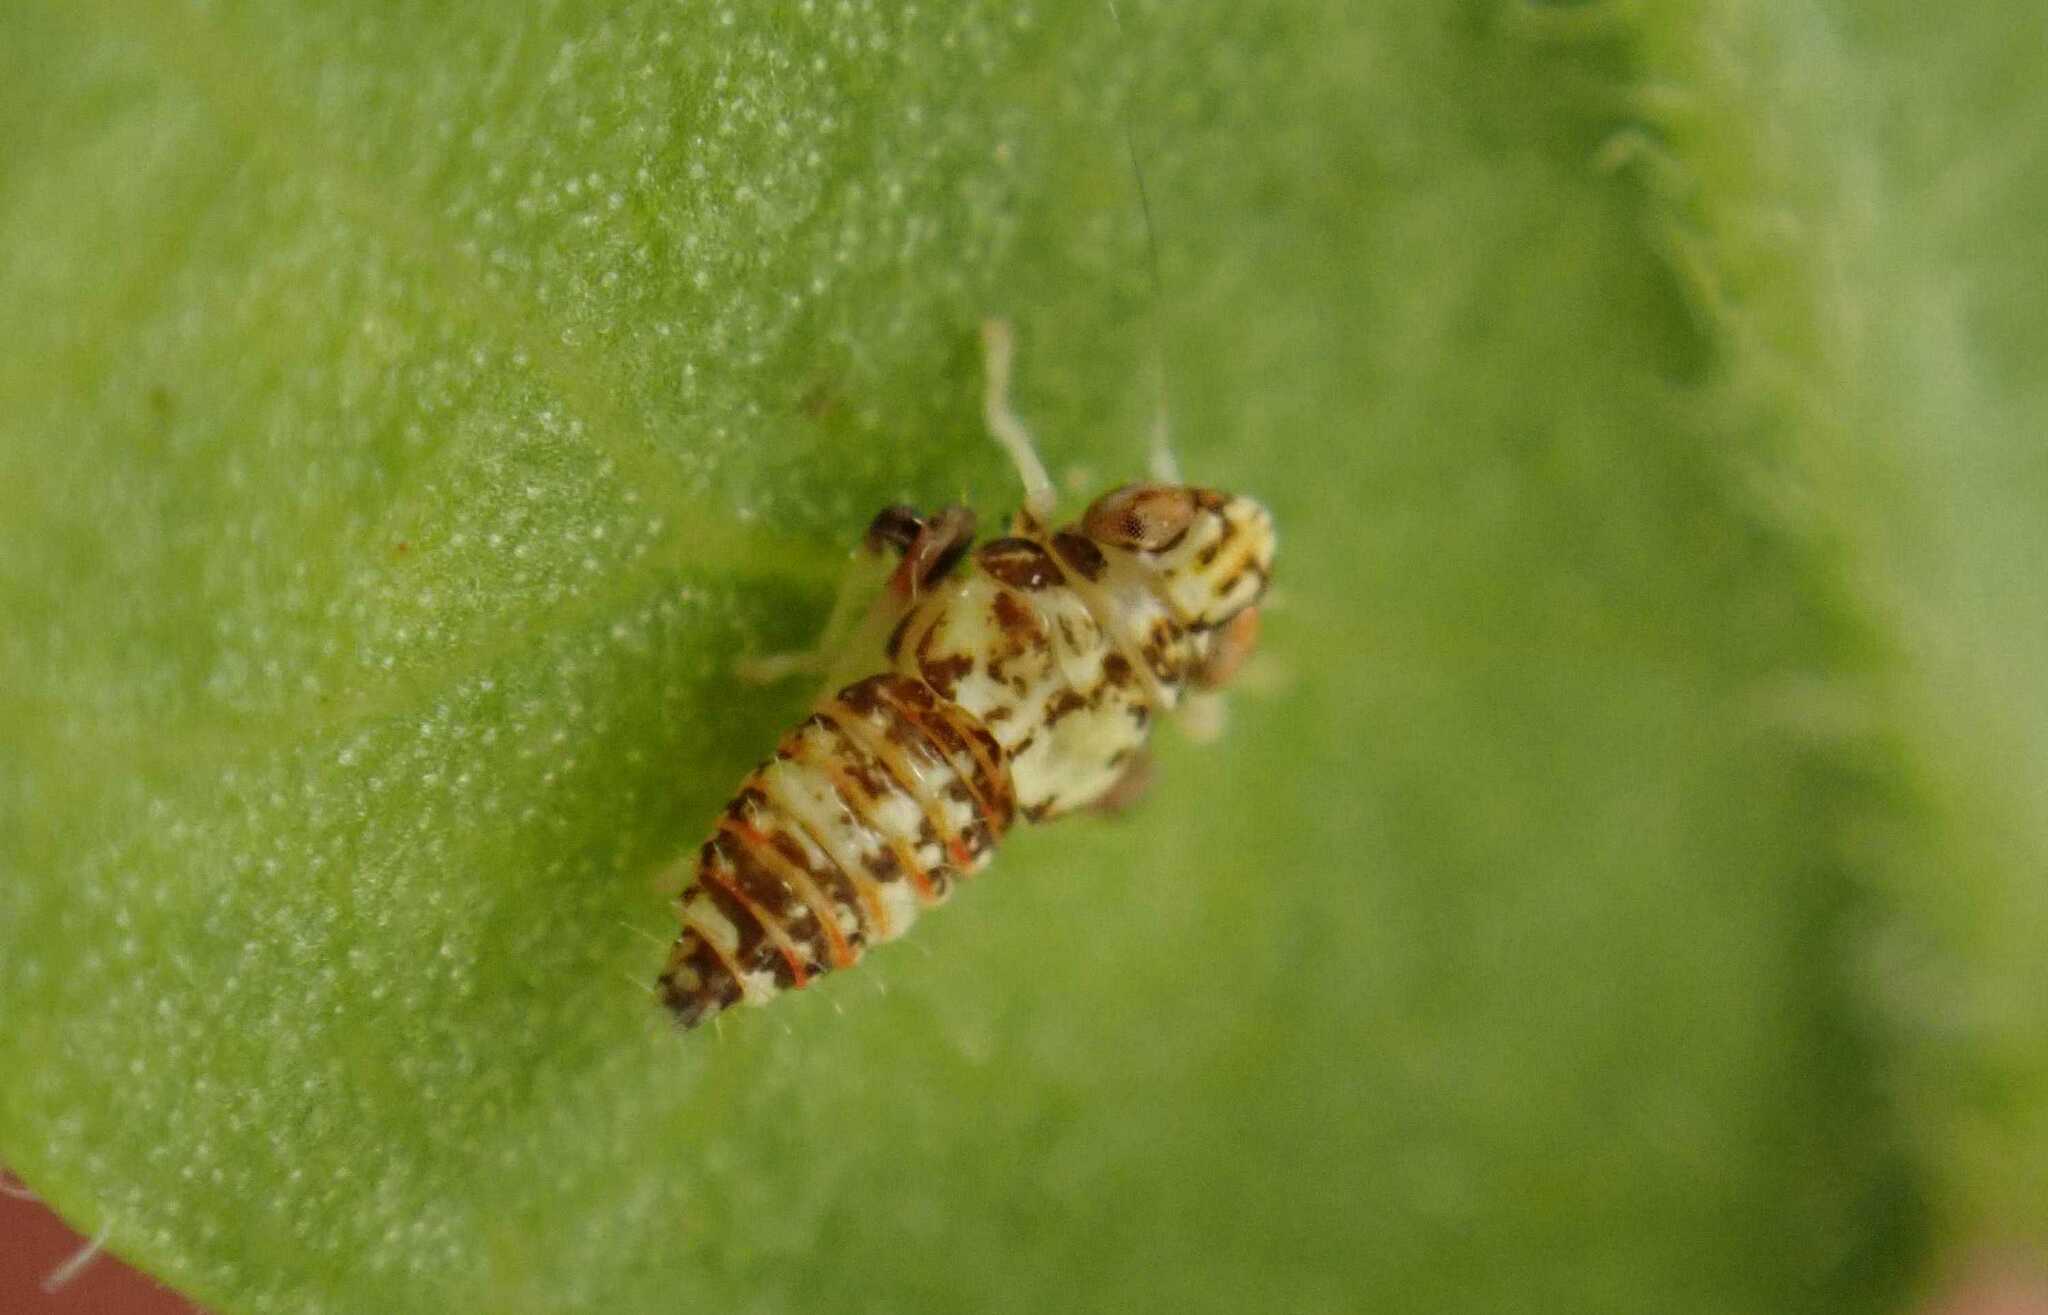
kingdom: Animalia
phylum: Arthropoda
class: Insecta
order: Hemiptera
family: Cicadellidae
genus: Orientus
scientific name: Orientus ishidae
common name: Japanese leafhopper
